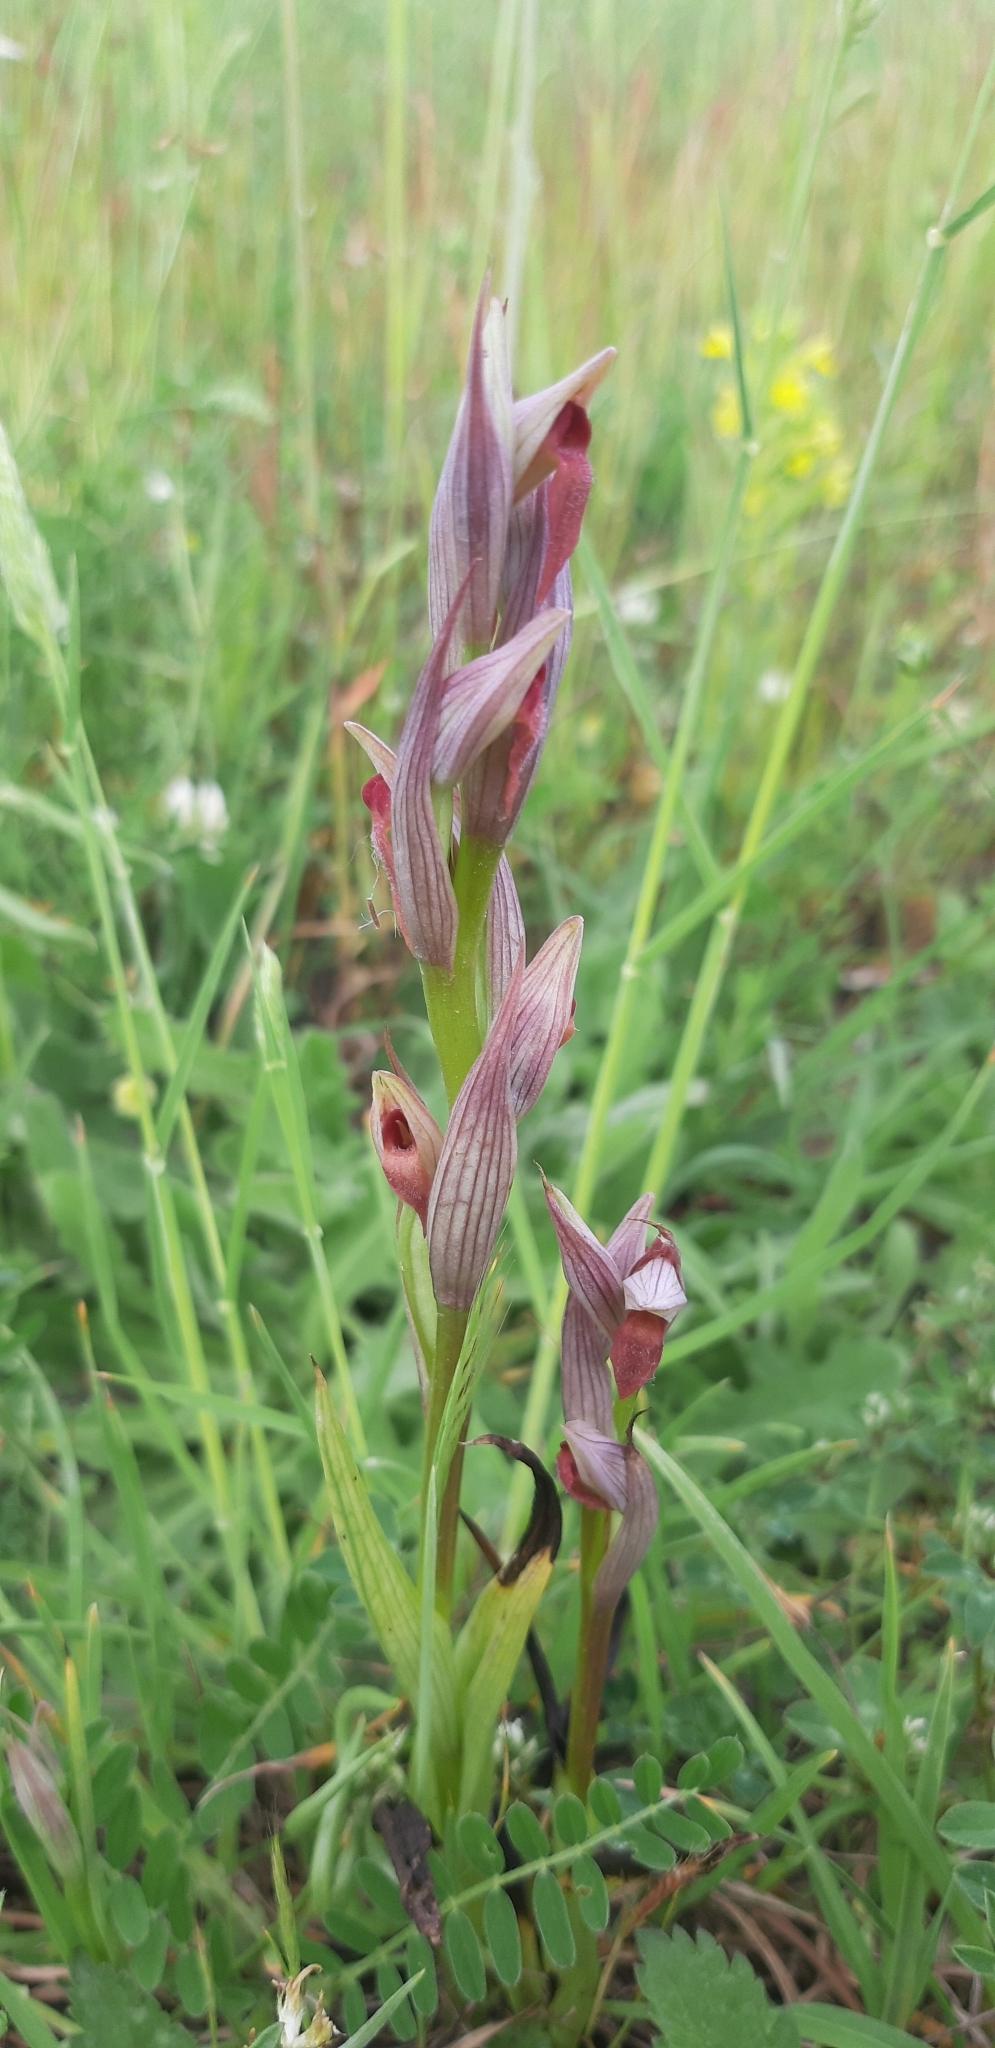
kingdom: Plantae
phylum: Tracheophyta
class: Liliopsida
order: Asparagales
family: Orchidaceae
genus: Serapias
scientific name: Serapias parviflora
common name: Small-flowered tongue-orchid
